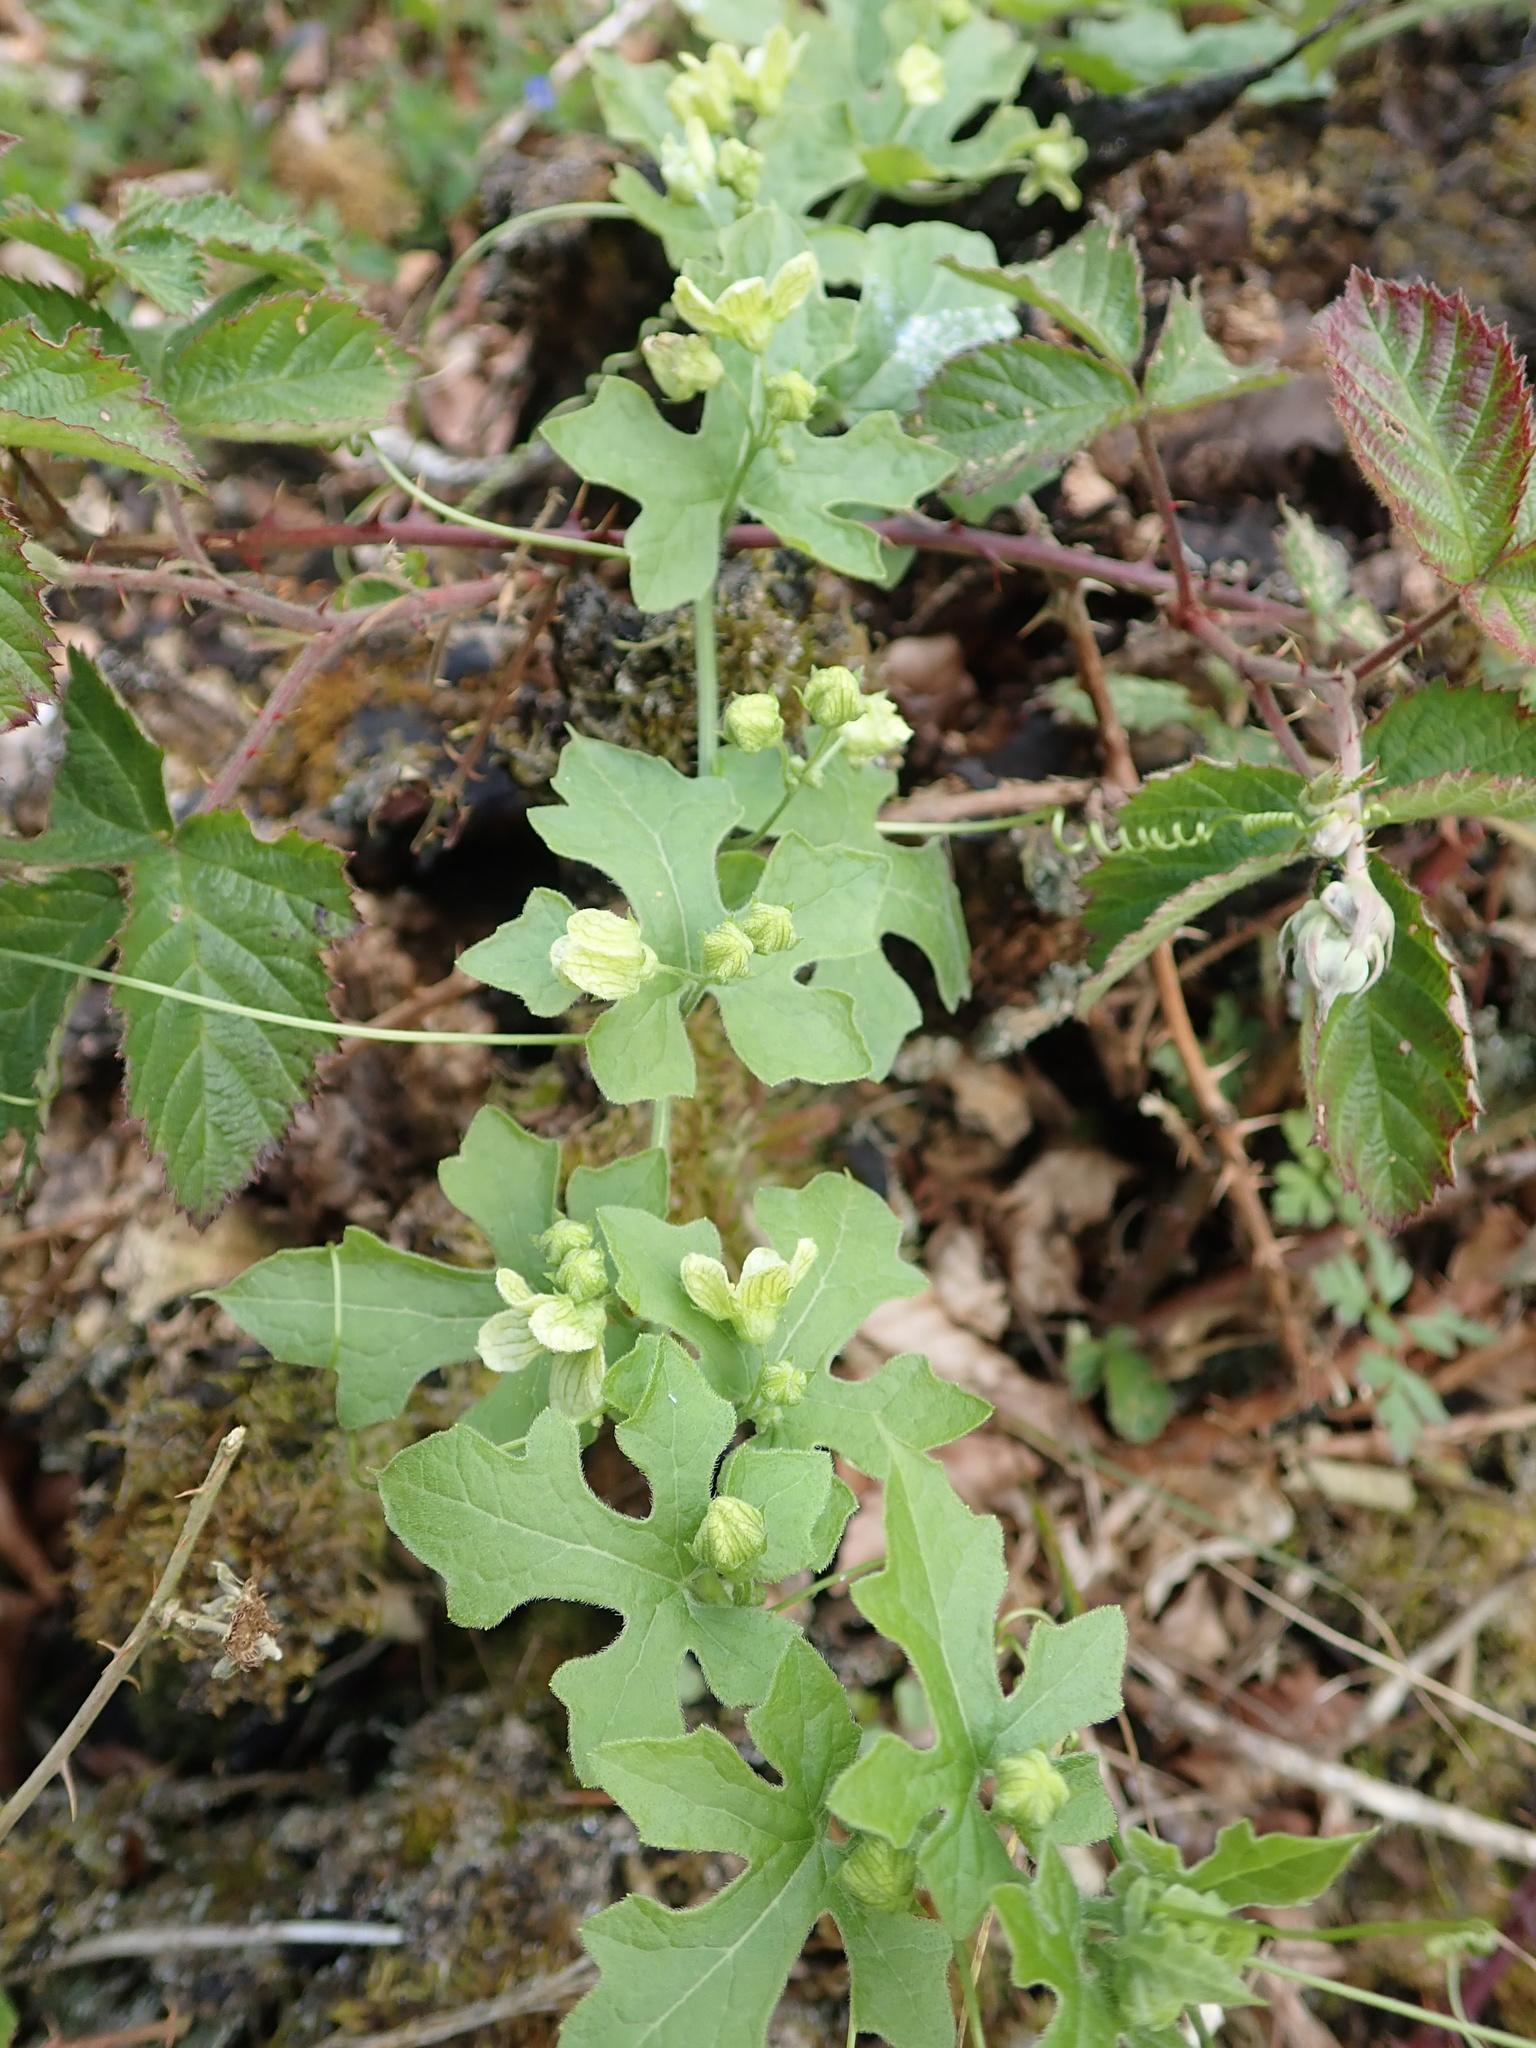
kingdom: Plantae
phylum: Tracheophyta
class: Magnoliopsida
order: Cucurbitales
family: Cucurbitaceae
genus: Bryonia
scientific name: Bryonia cretica
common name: Cretan bryony
